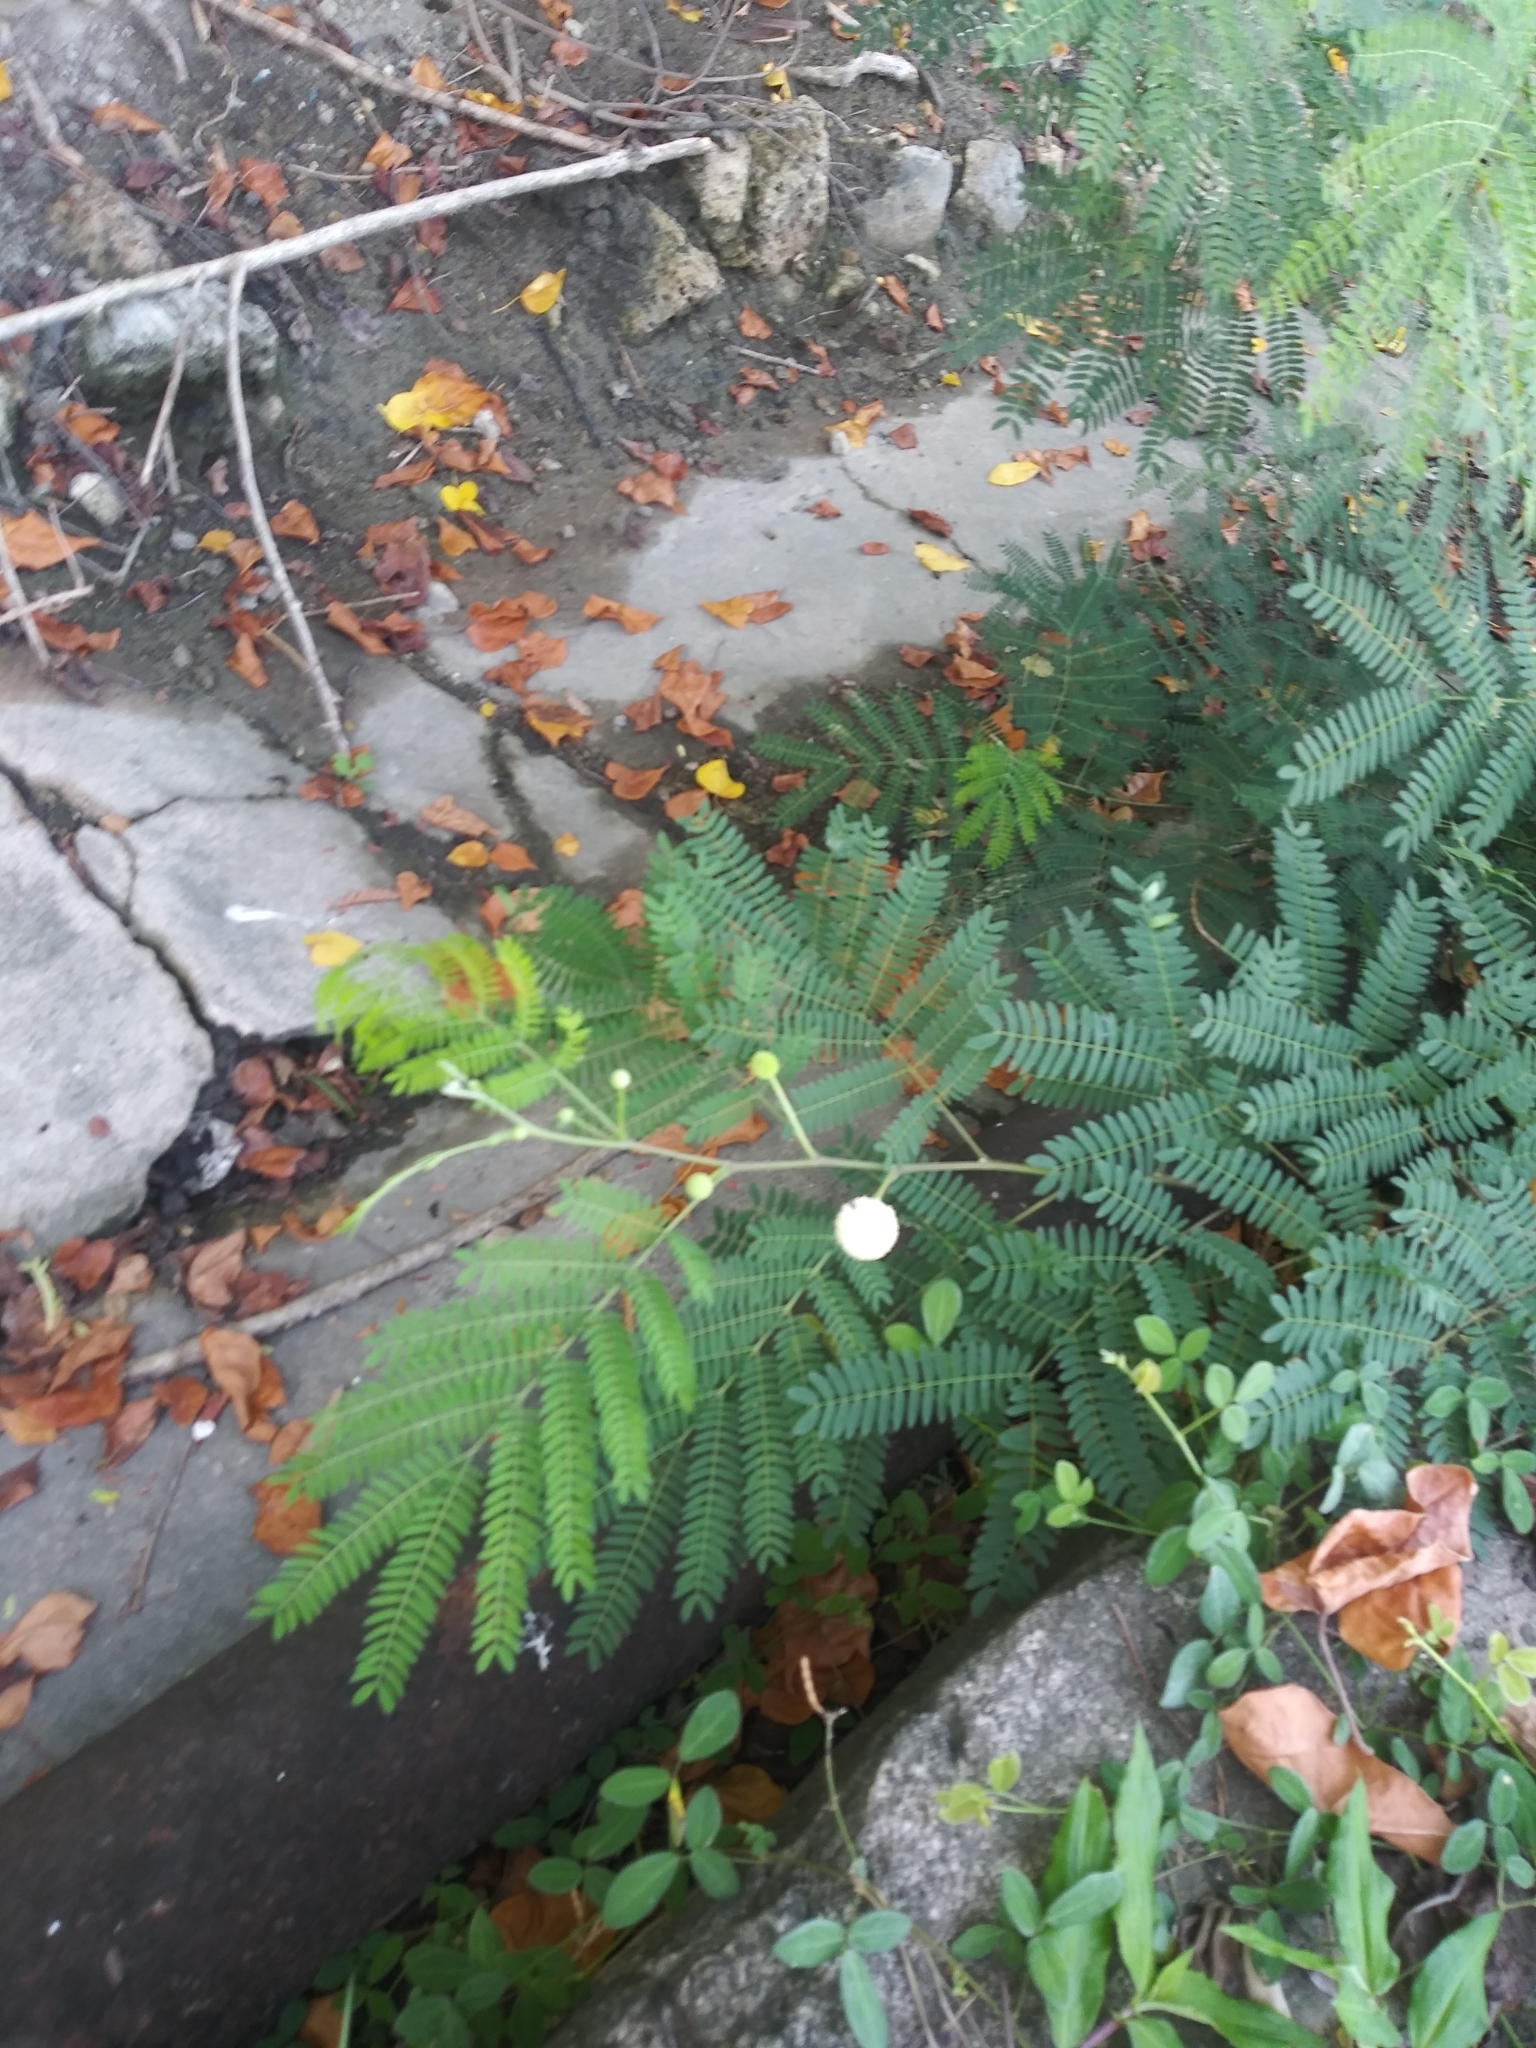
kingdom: Plantae
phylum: Tracheophyta
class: Magnoliopsida
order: Fabales
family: Fabaceae
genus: Leucaena
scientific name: Leucaena leucocephala
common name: White leadtree
